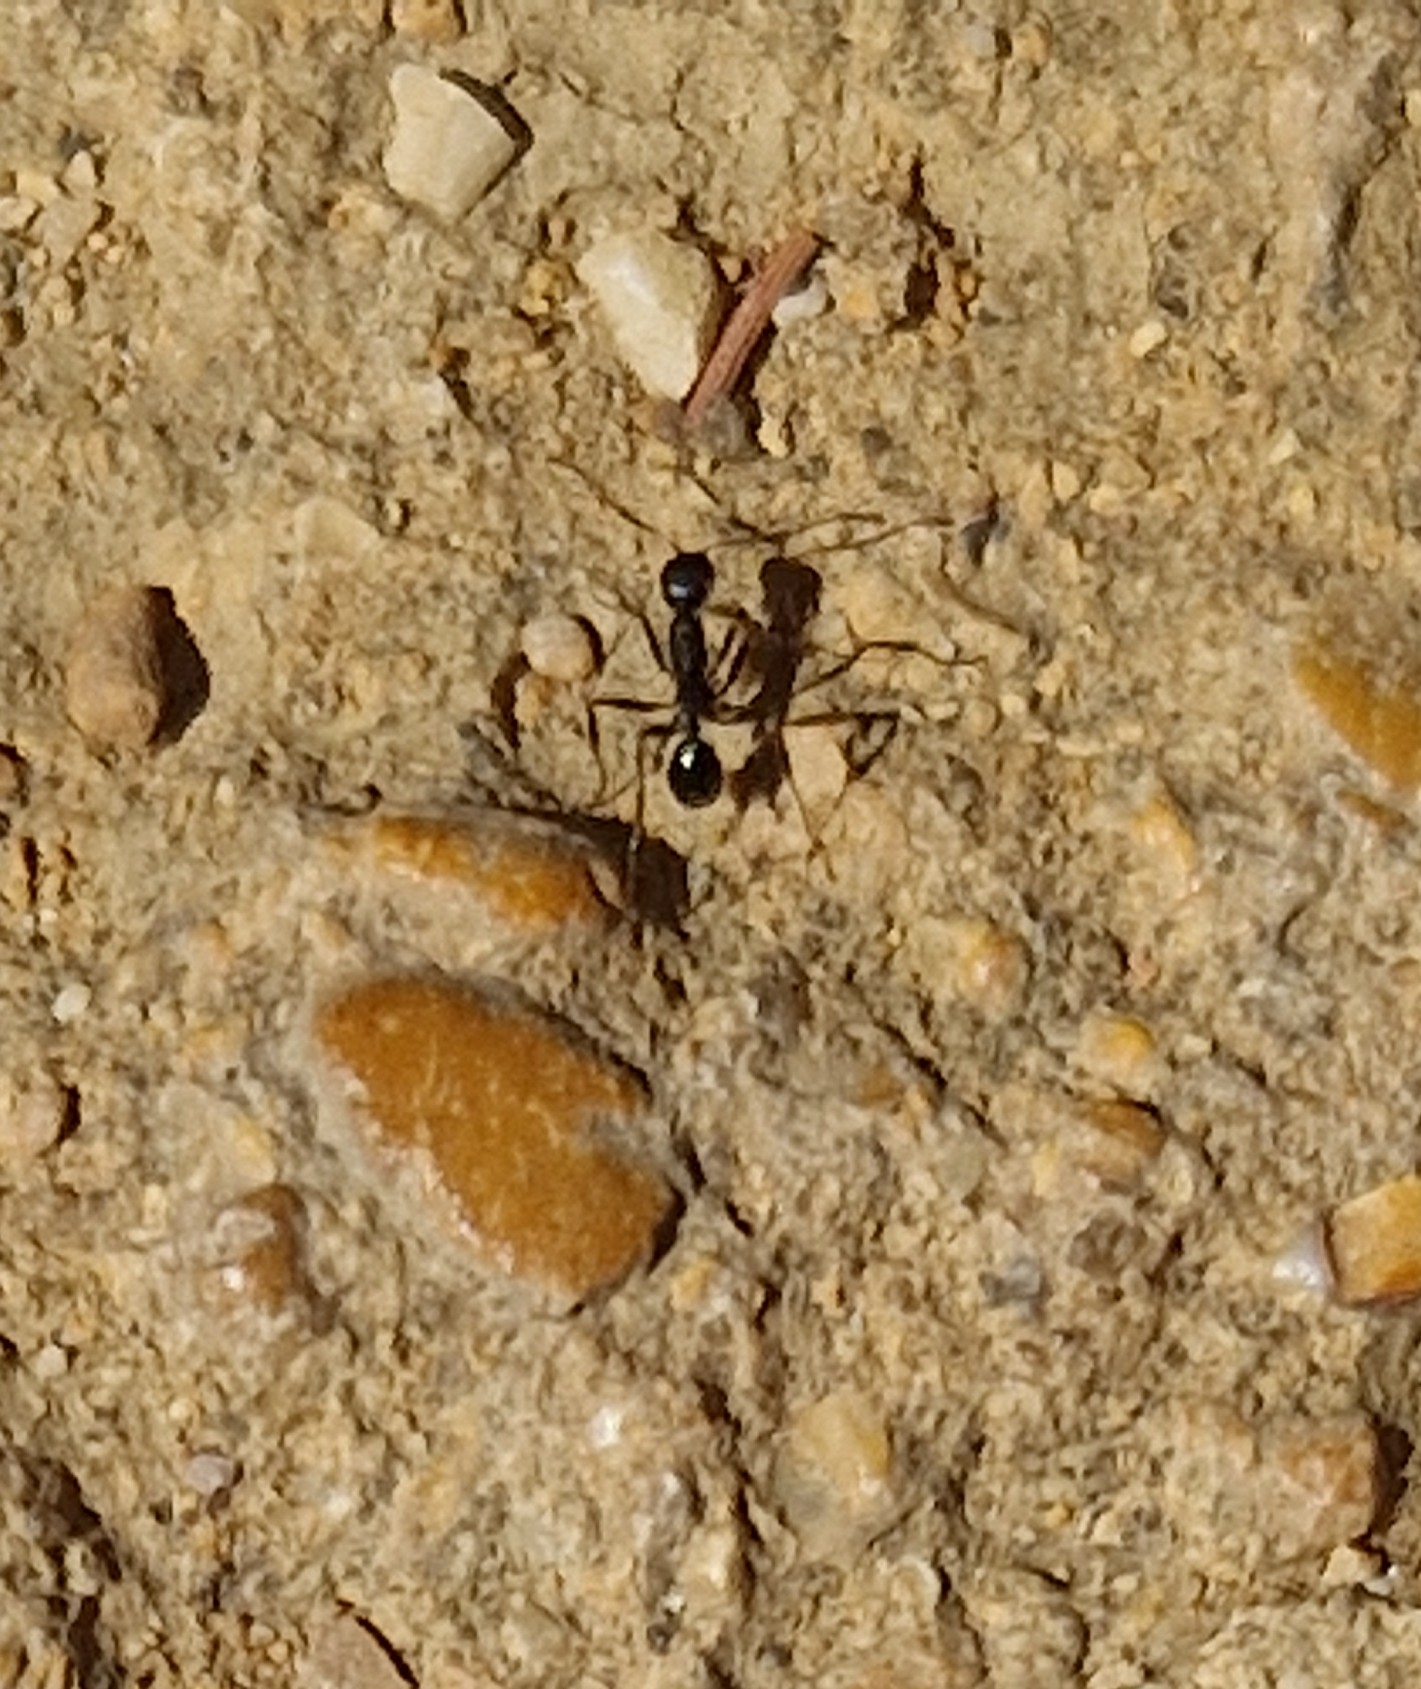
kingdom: Animalia
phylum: Arthropoda
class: Insecta
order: Hymenoptera
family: Formicidae
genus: Aphaenogaster
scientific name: Aphaenogaster semipolita
